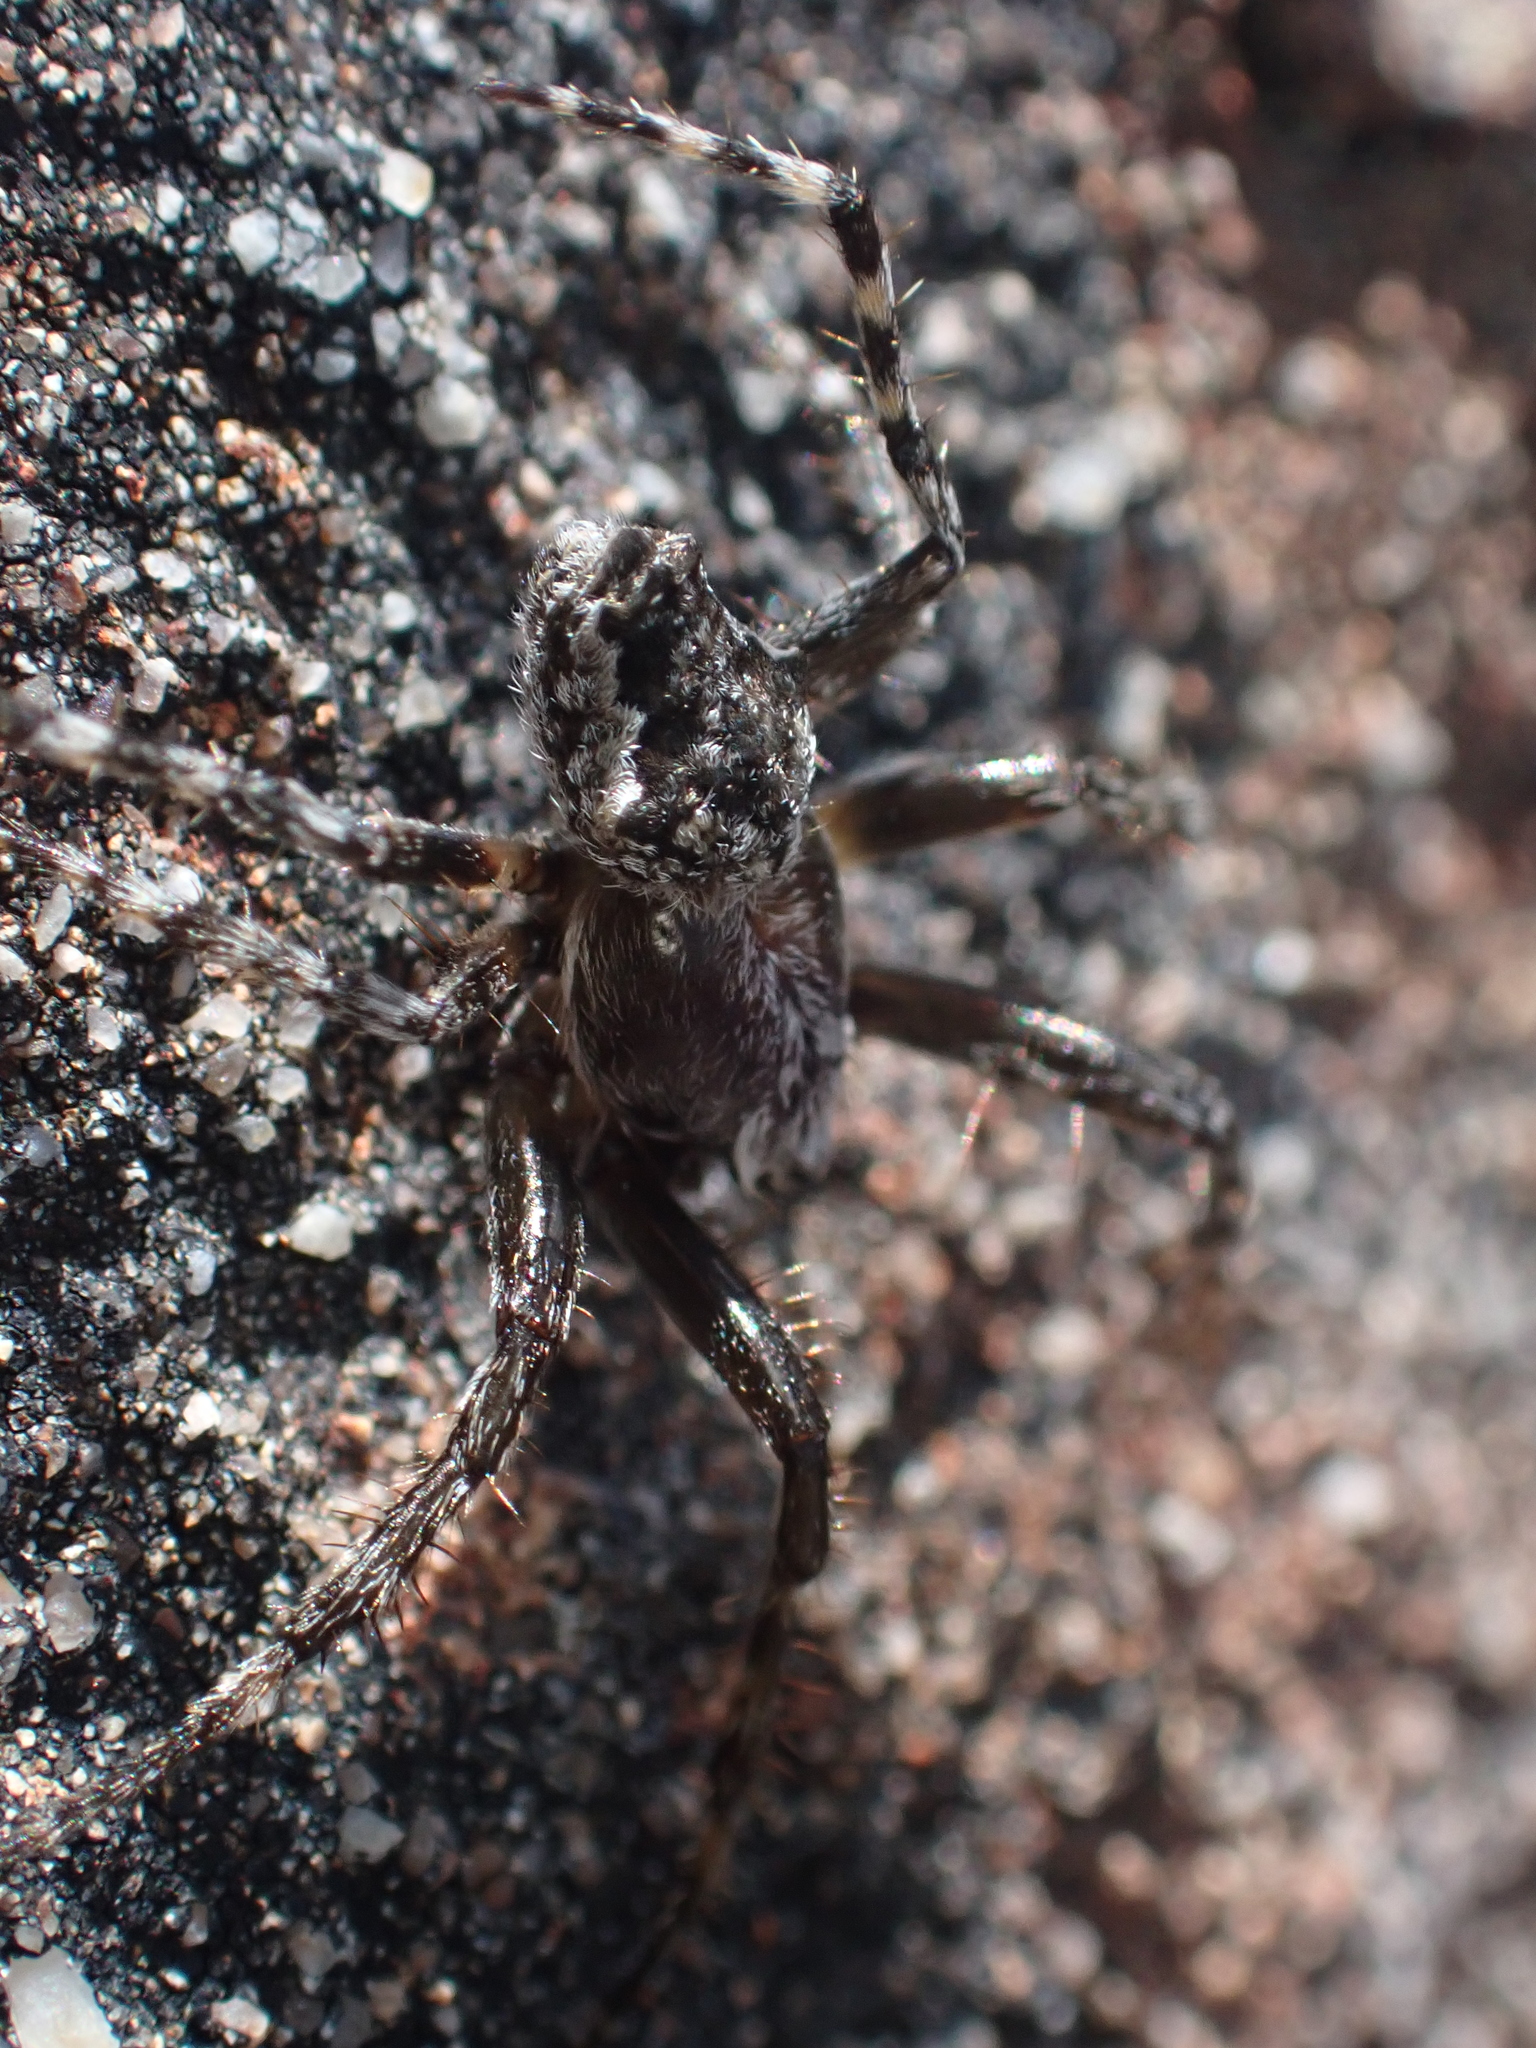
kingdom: Animalia
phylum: Arthropoda
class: Arachnida
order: Araneae
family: Araneidae
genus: Eriophora
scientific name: Eriophora pustulosa
